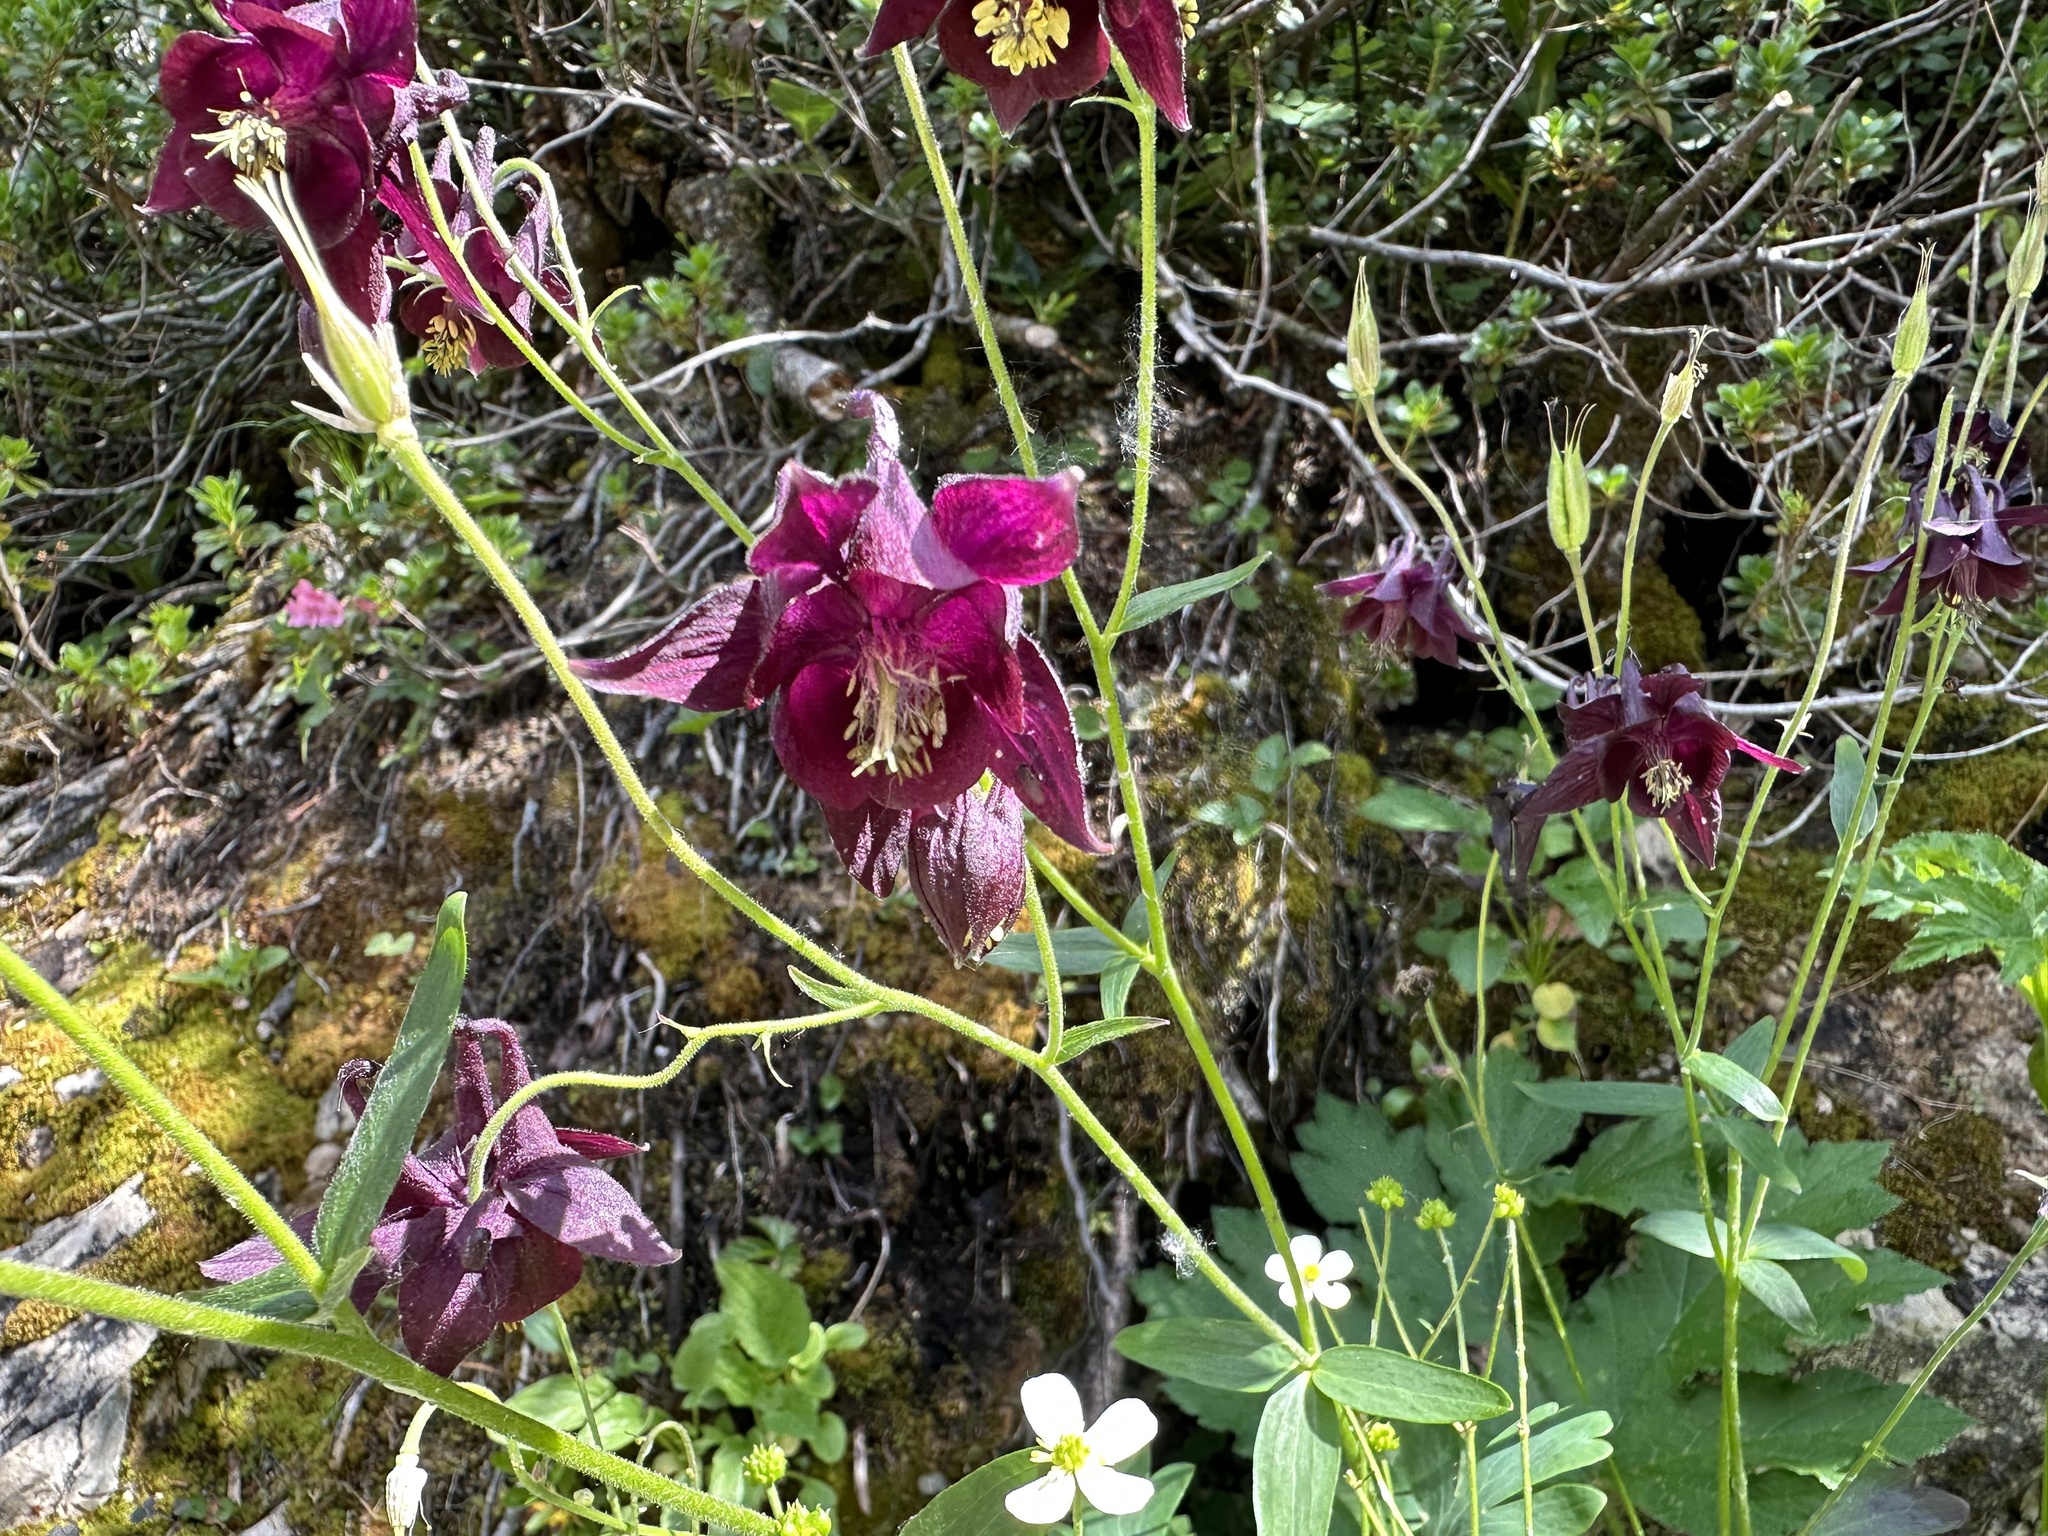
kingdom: Plantae
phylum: Tracheophyta
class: Magnoliopsida
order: Ranunculales
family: Ranunculaceae
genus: Aquilegia
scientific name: Aquilegia atrata
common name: Dark columbine
